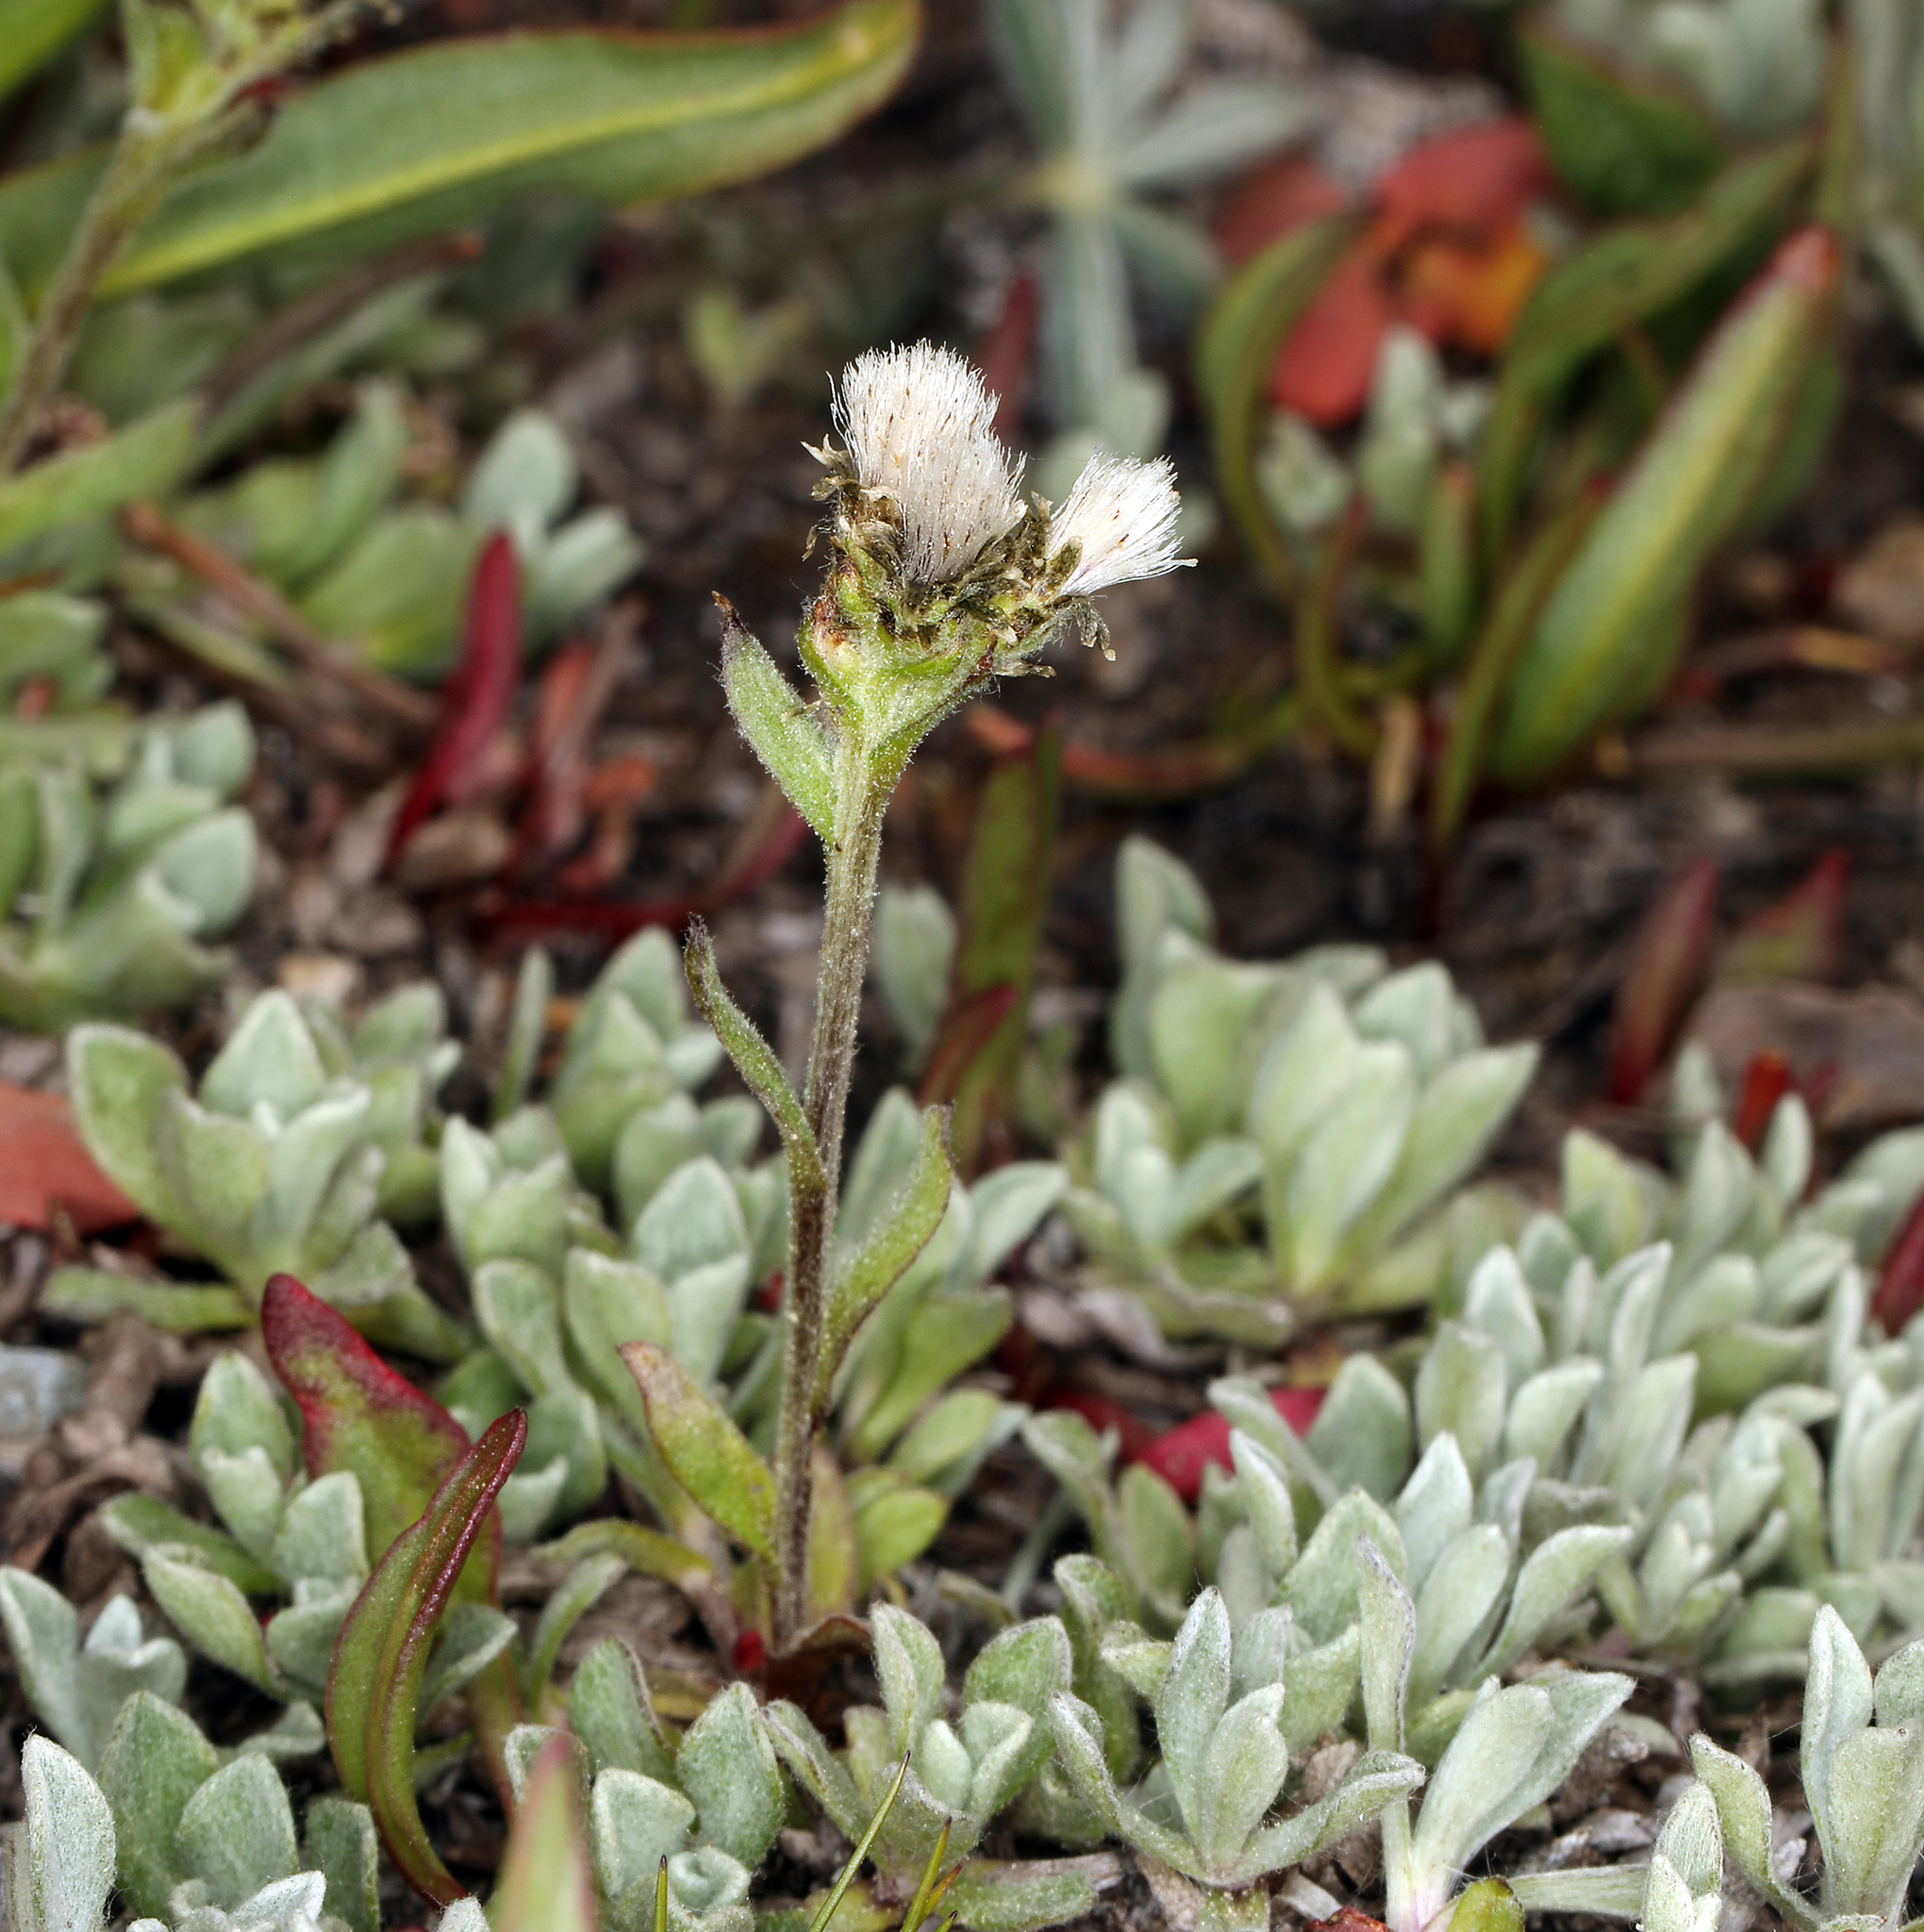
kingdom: Plantae
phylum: Tracheophyta
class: Magnoliopsida
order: Asterales
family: Asteraceae
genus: Antennaria
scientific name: Antennaria media
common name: Rocky mountain pussytoes
